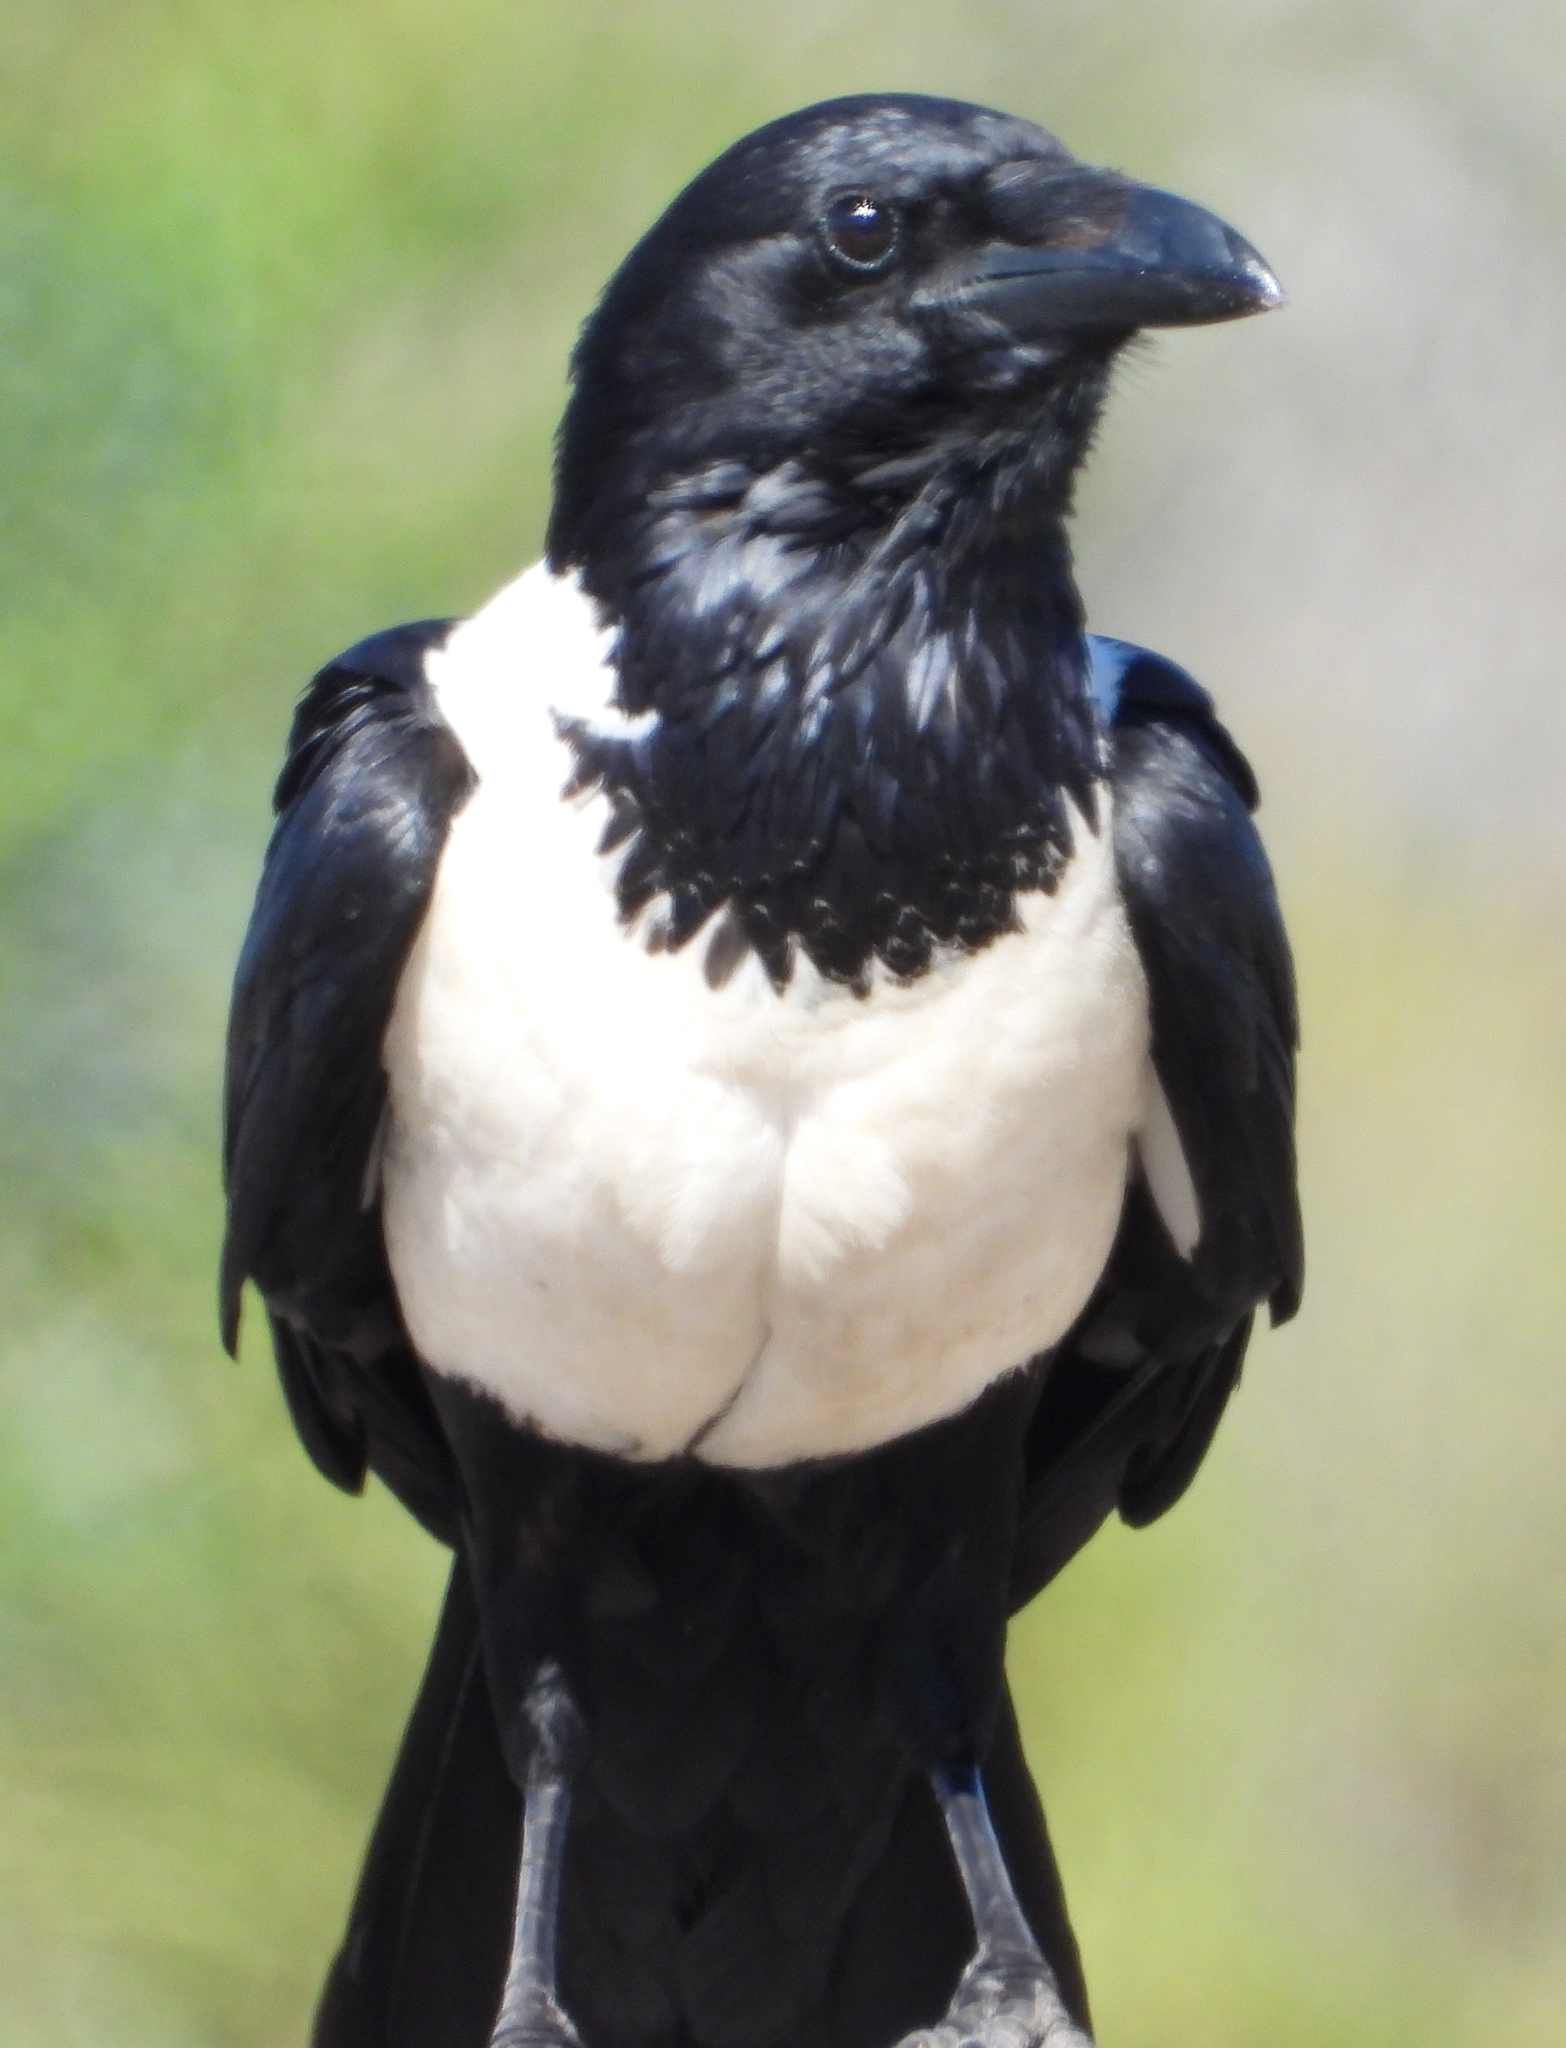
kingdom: Animalia
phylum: Chordata
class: Aves
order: Passeriformes
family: Corvidae
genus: Corvus
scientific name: Corvus albus
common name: Pied crow
